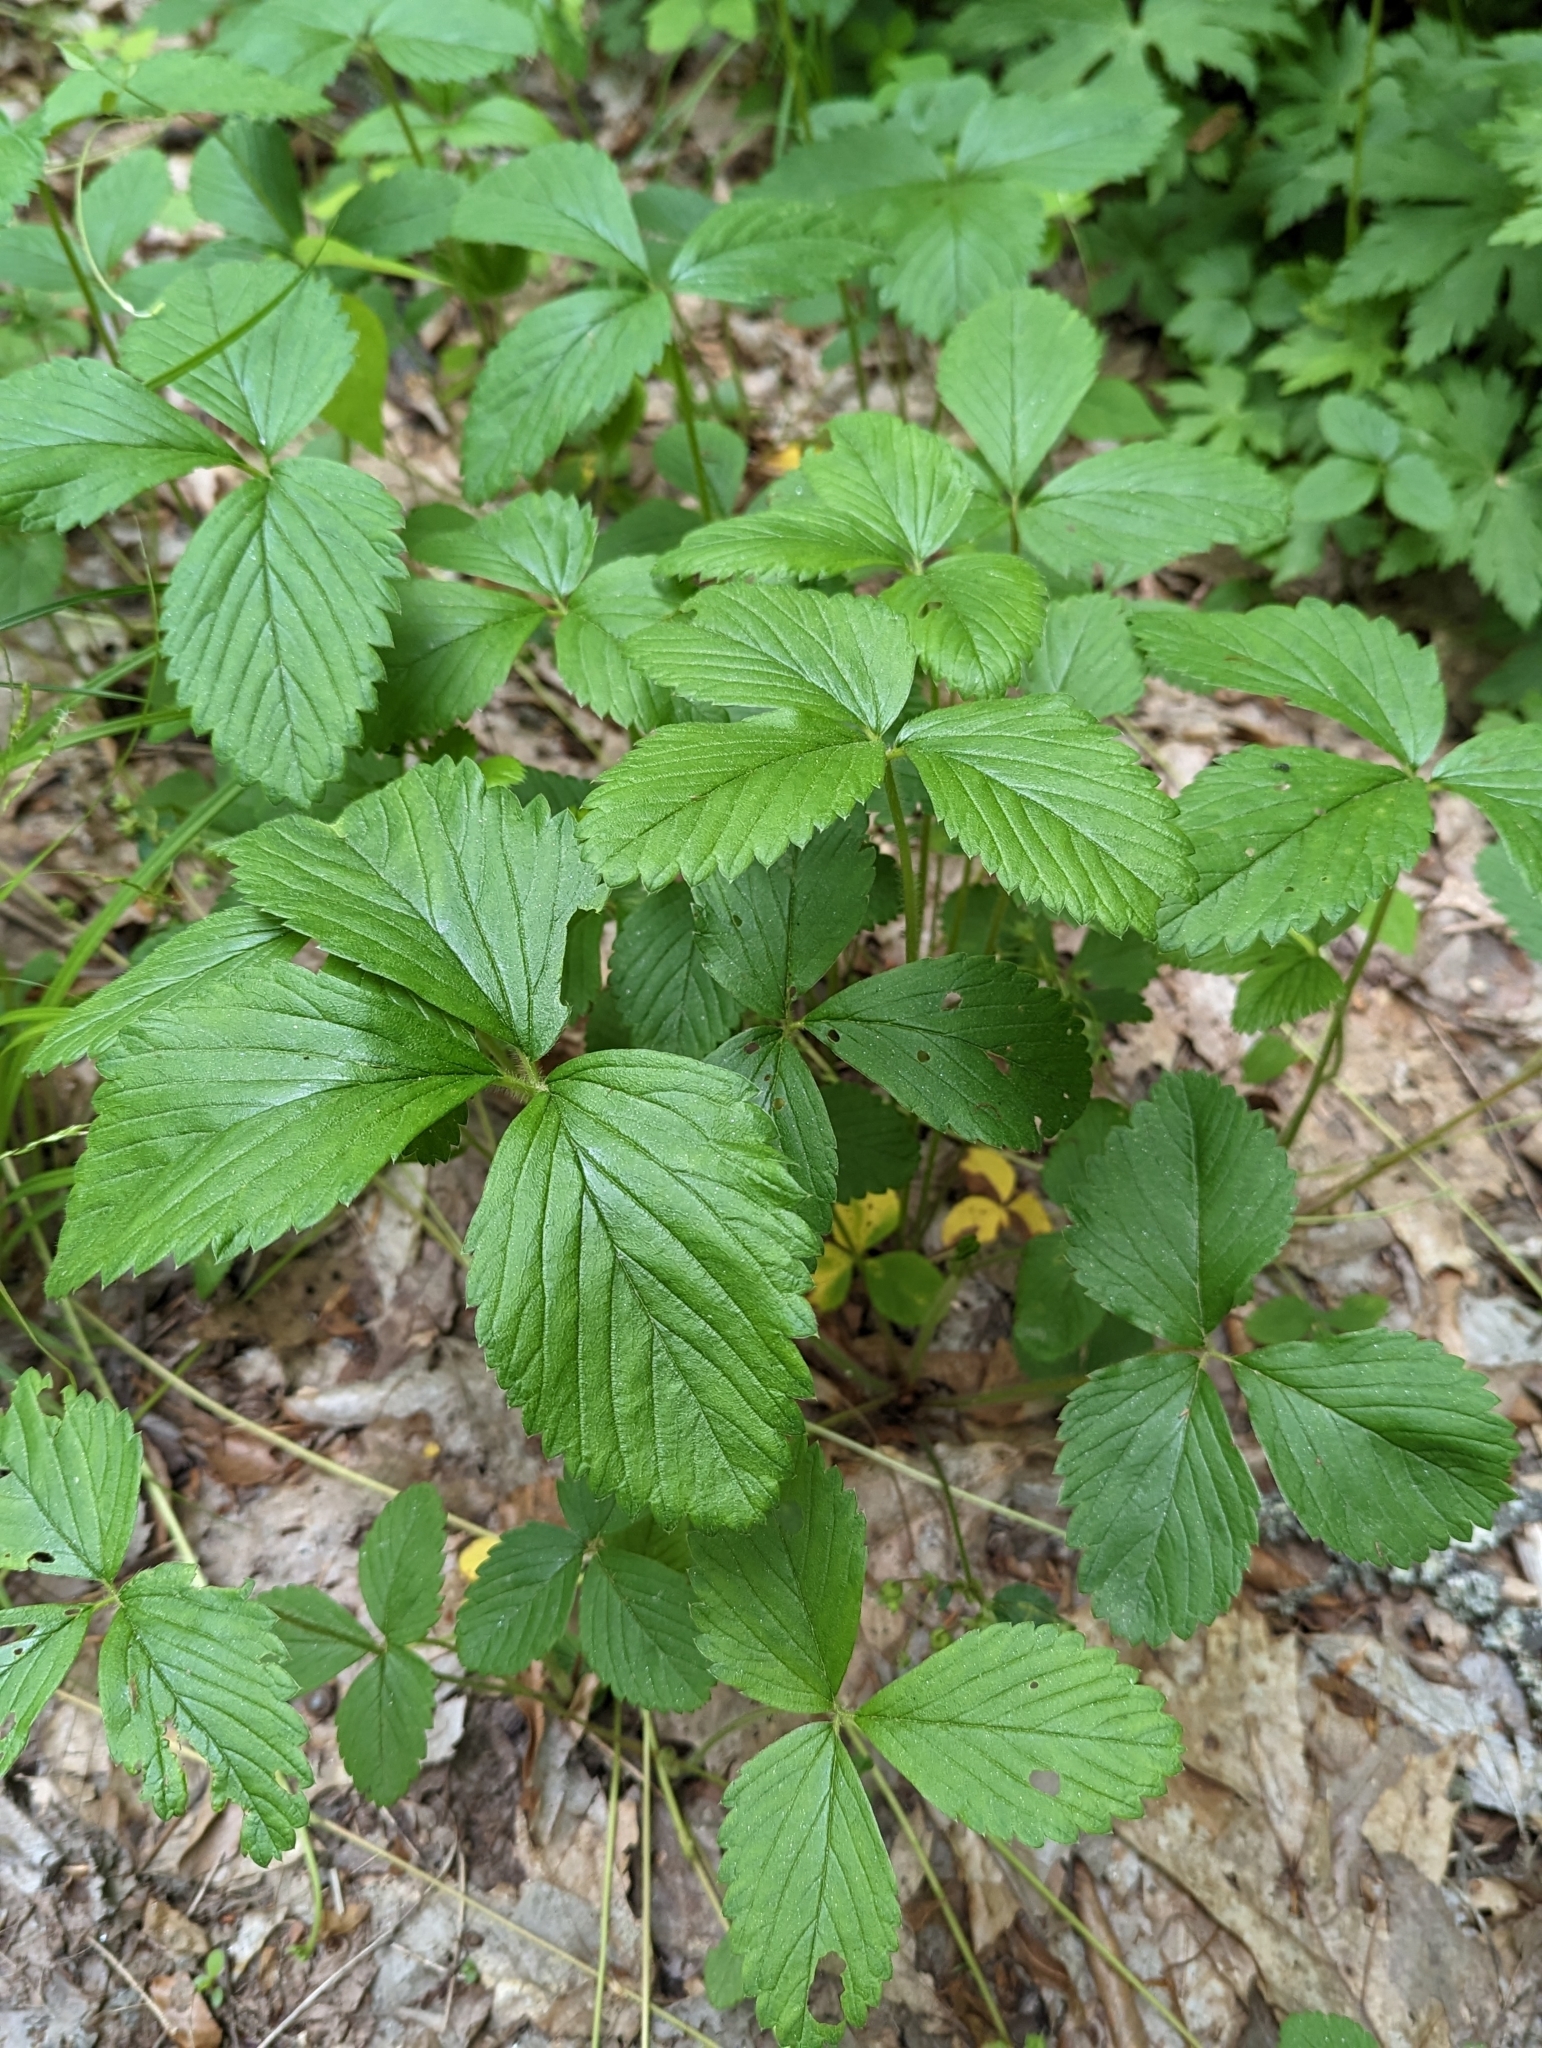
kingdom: Plantae
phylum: Tracheophyta
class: Magnoliopsida
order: Rosales
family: Rosaceae
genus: Fragaria
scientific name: Fragaria virginiana
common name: Thickleaved wild strawberry
